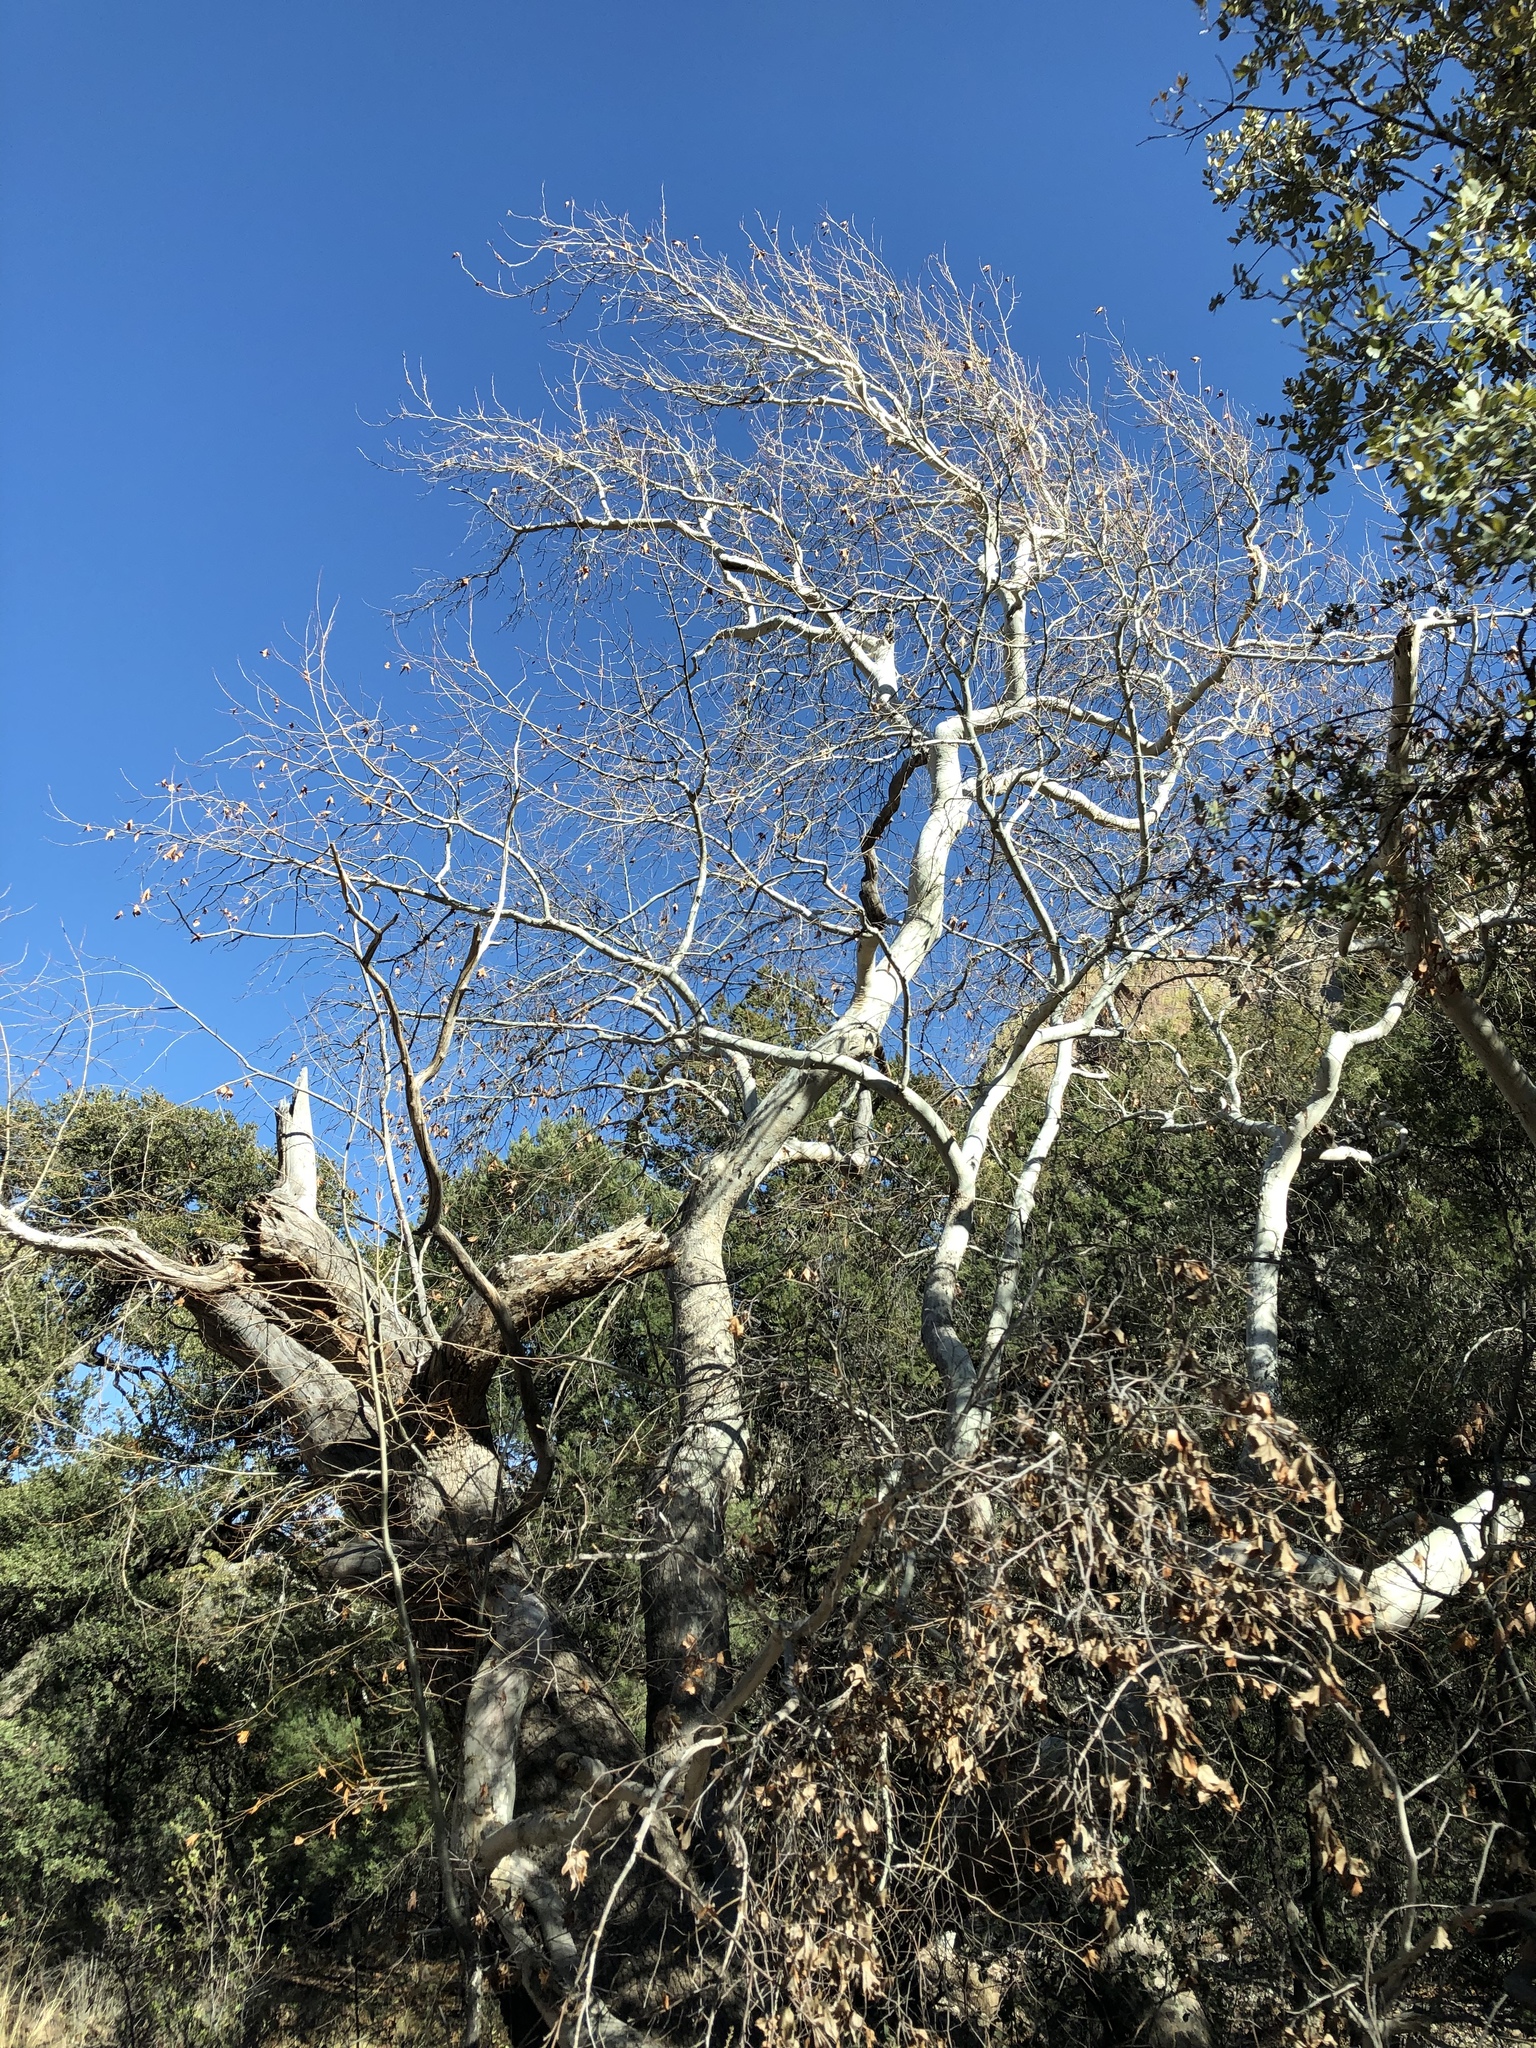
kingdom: Plantae
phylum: Tracheophyta
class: Magnoliopsida
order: Proteales
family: Platanaceae
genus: Platanus
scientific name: Platanus wrightii
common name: Arizona sycamore
